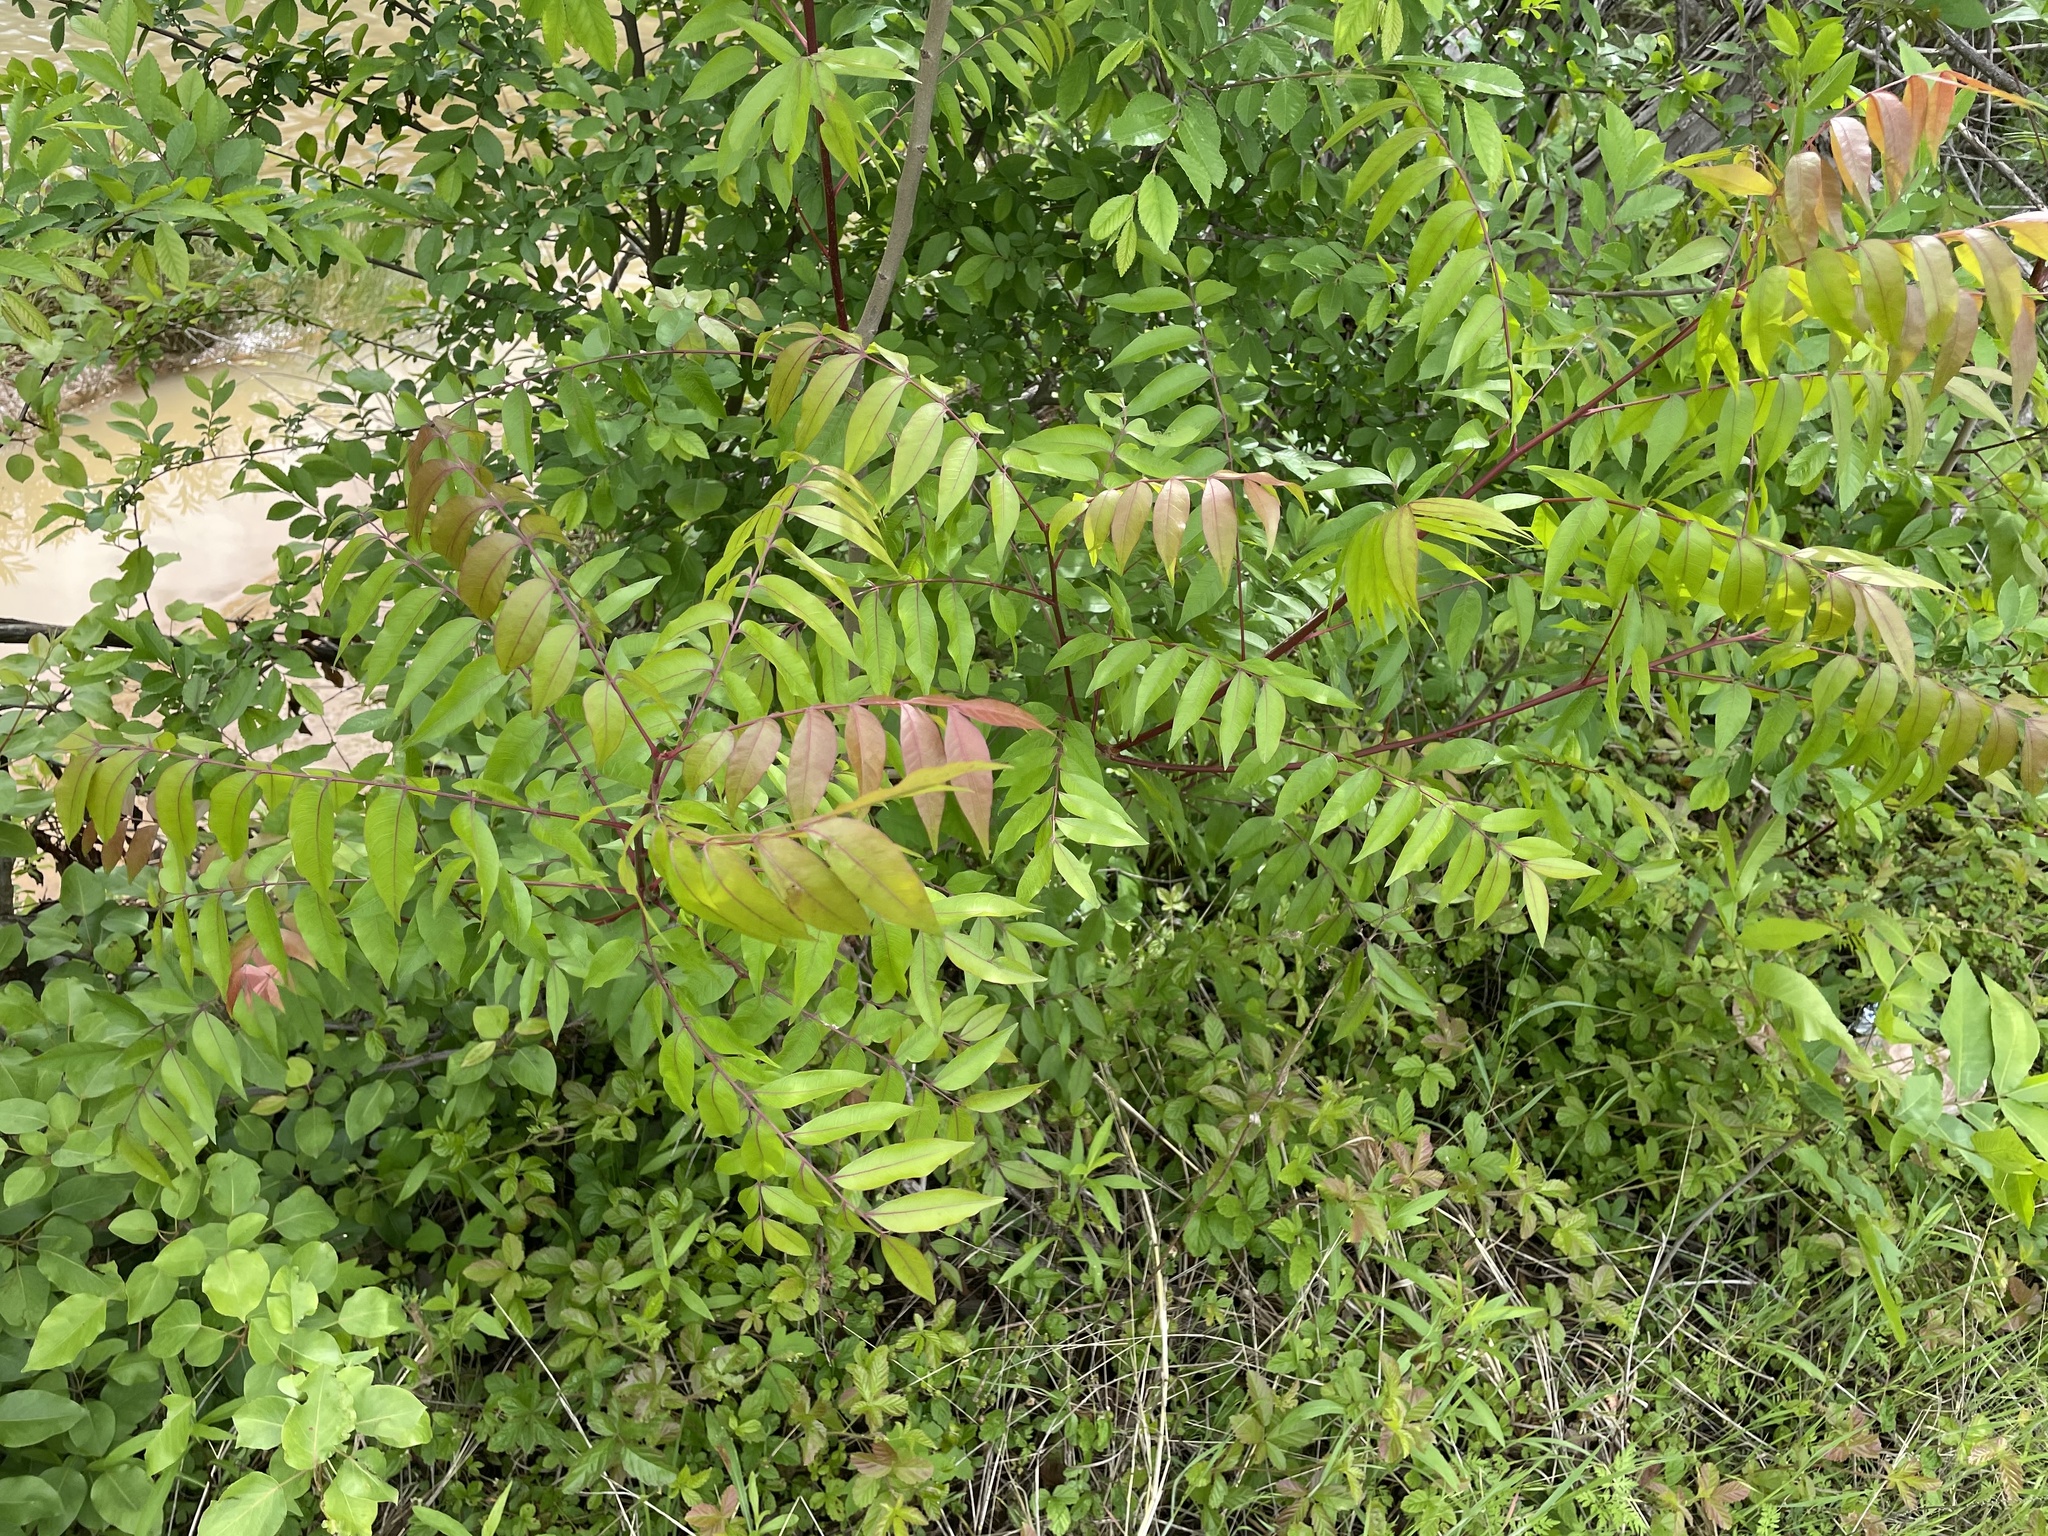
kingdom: Plantae
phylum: Tracheophyta
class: Magnoliopsida
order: Sapindales
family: Anacardiaceae
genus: Pistacia
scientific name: Pistacia chinensis
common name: Chinese pistache
